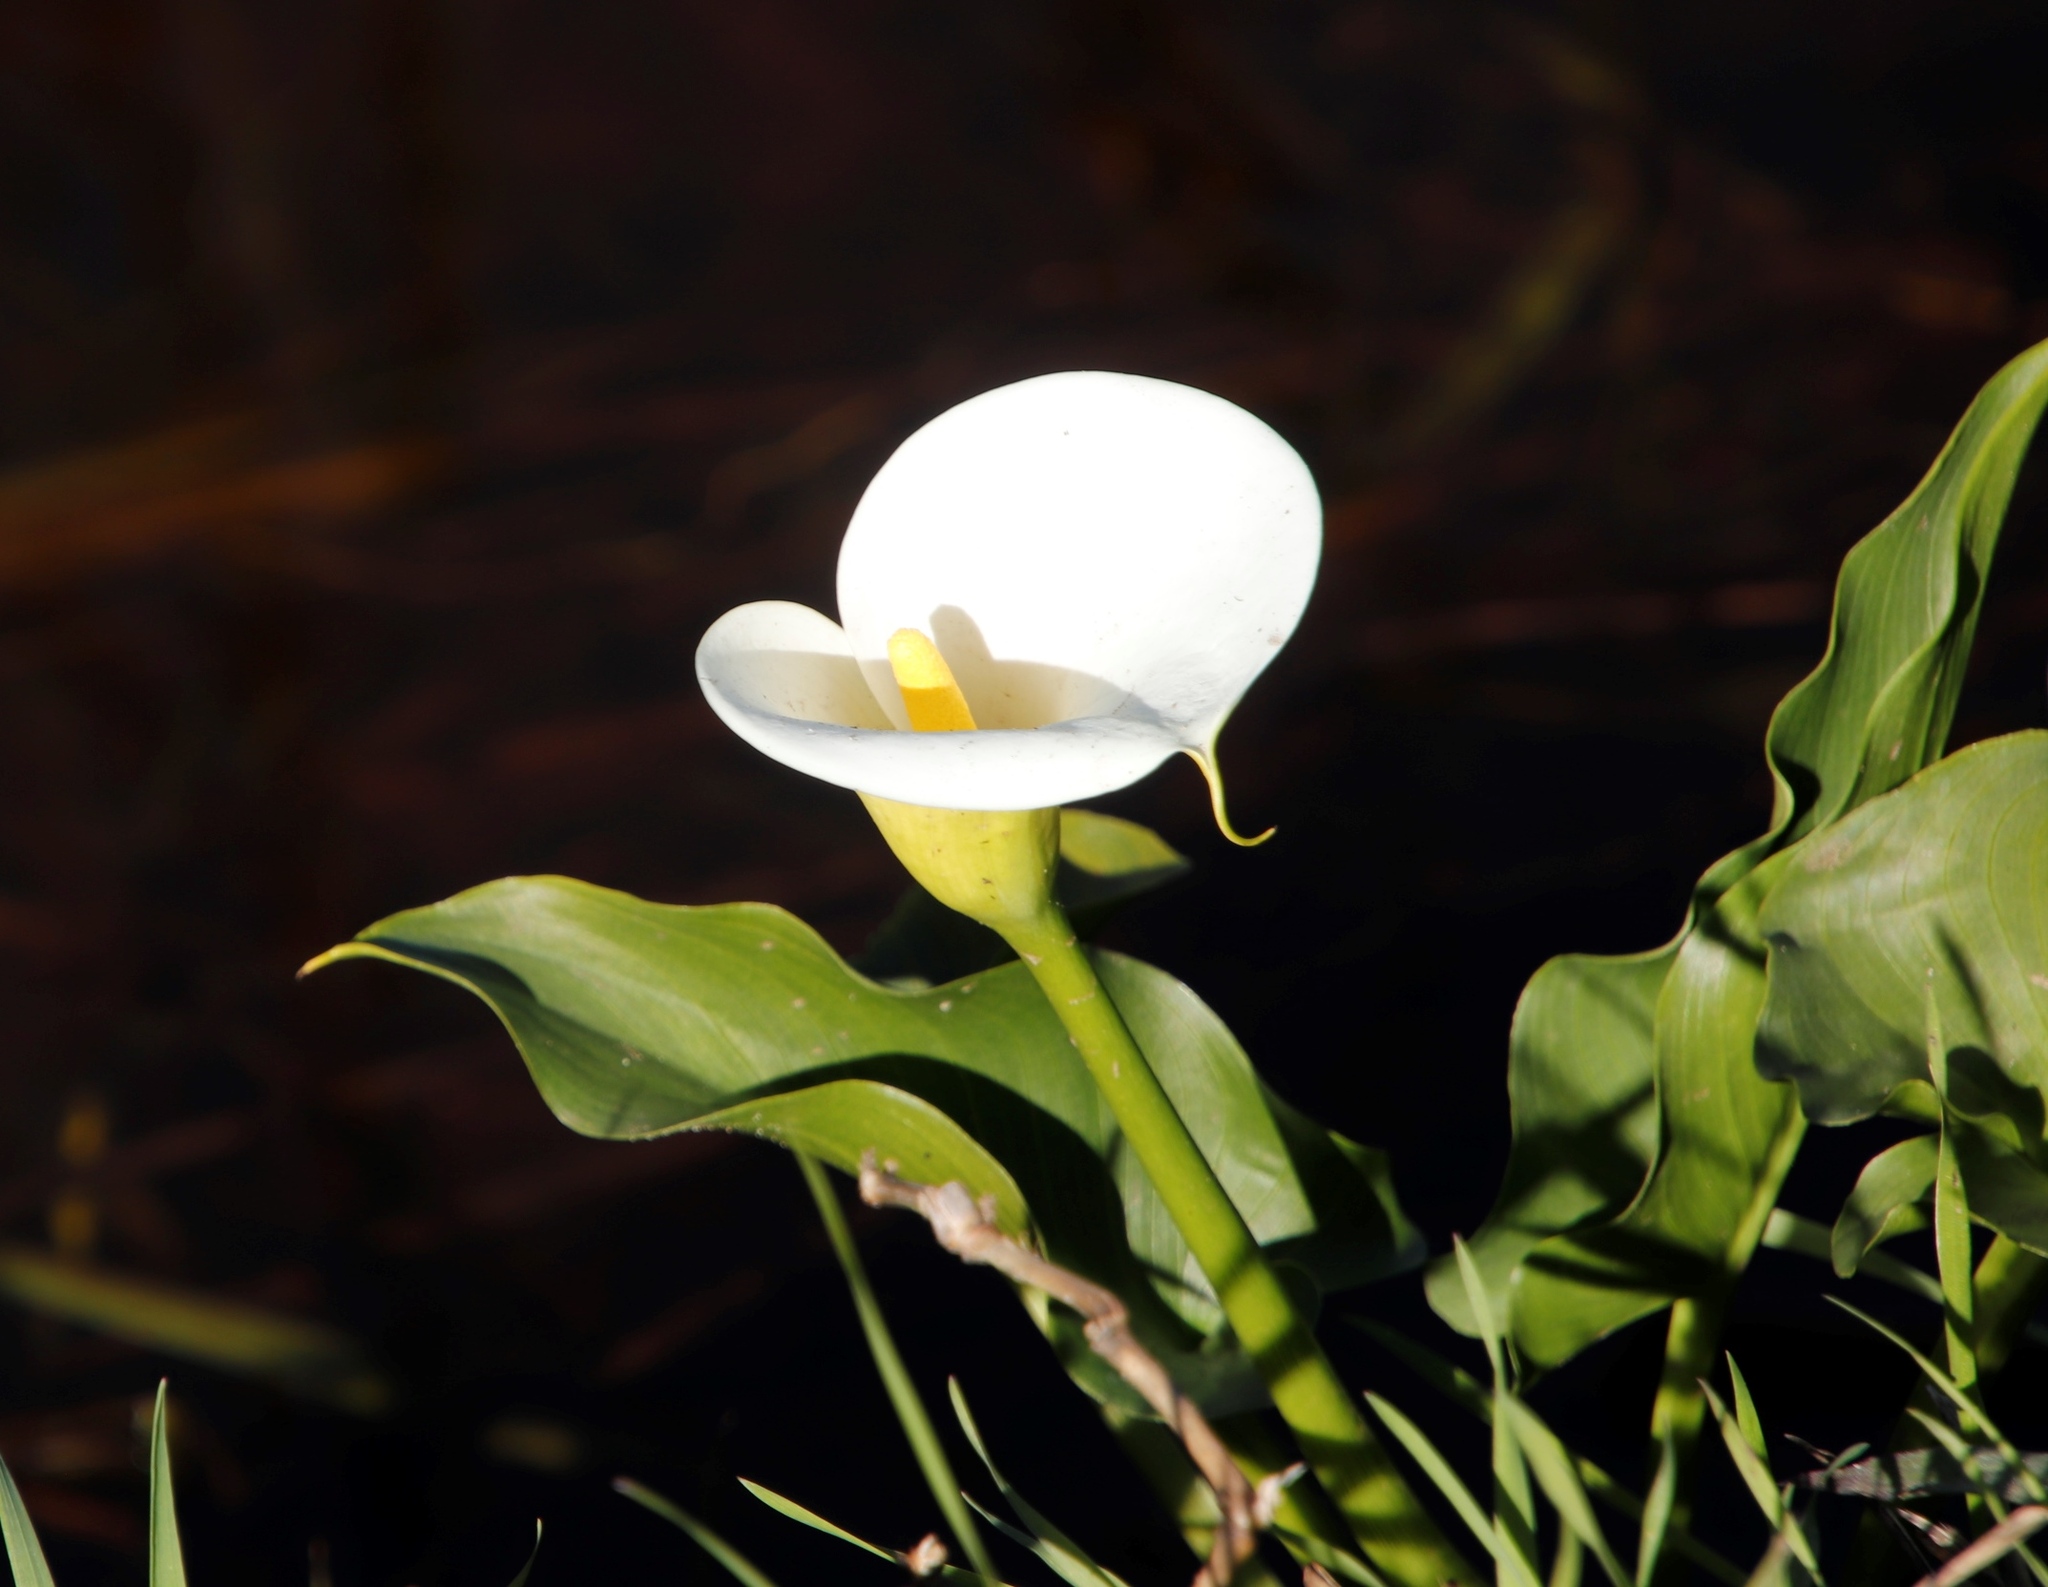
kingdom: Plantae
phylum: Tracheophyta
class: Liliopsida
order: Alismatales
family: Araceae
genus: Zantedeschia
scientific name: Zantedeschia aethiopica
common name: Altar-lily
